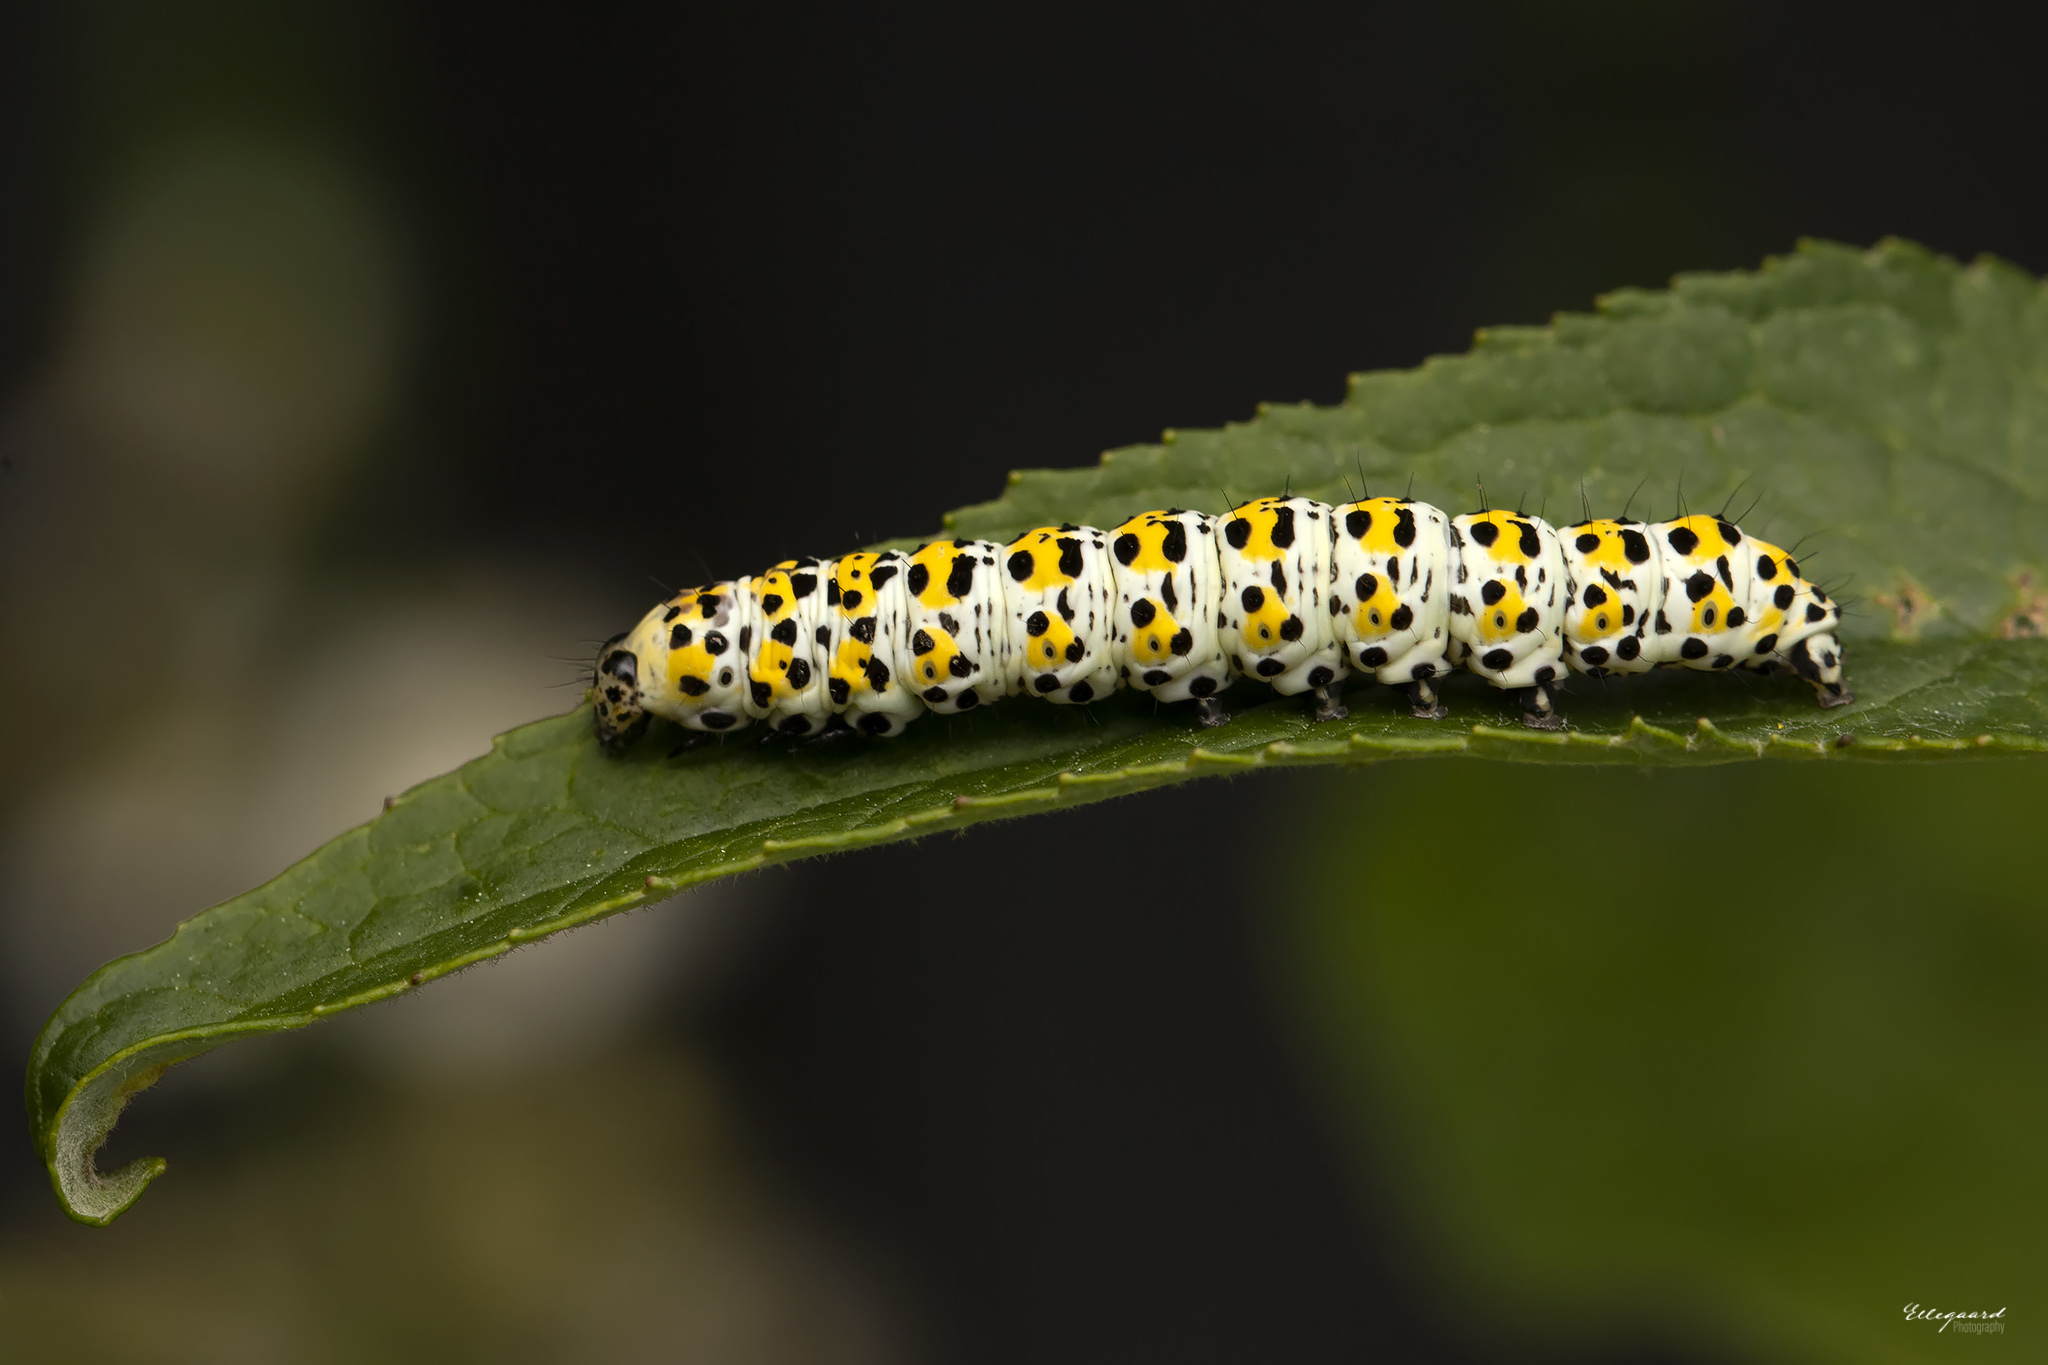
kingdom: Animalia
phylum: Arthropoda
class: Insecta
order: Lepidoptera
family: Noctuidae
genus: Cucullia
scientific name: Cucullia verbasci
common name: Mullein
